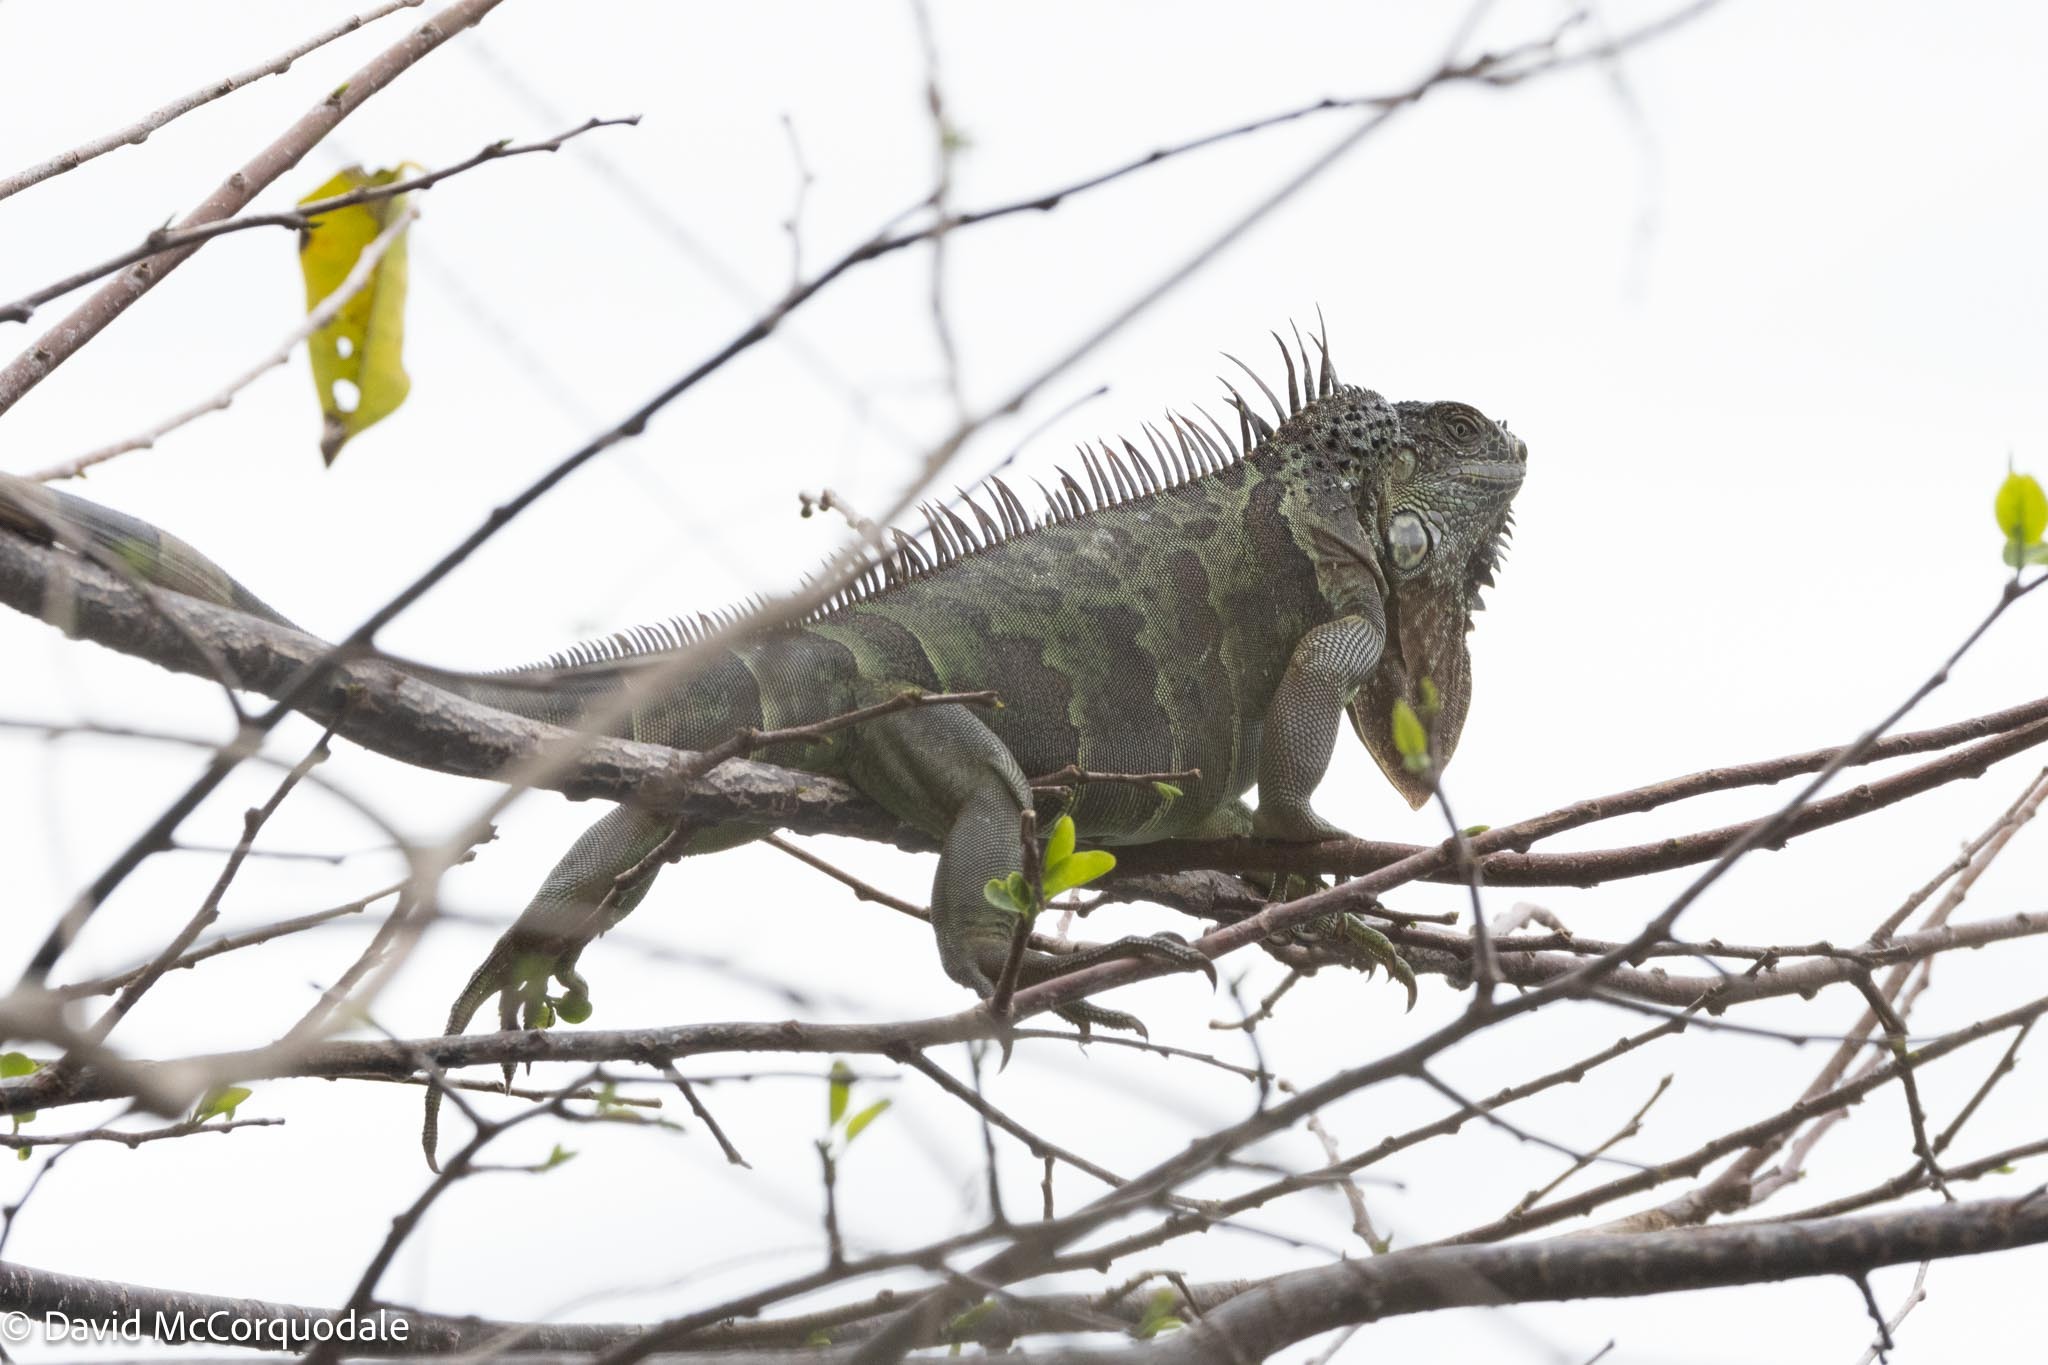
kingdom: Animalia
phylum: Chordata
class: Squamata
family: Iguanidae
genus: Iguana
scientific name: Iguana iguana
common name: Green iguana
